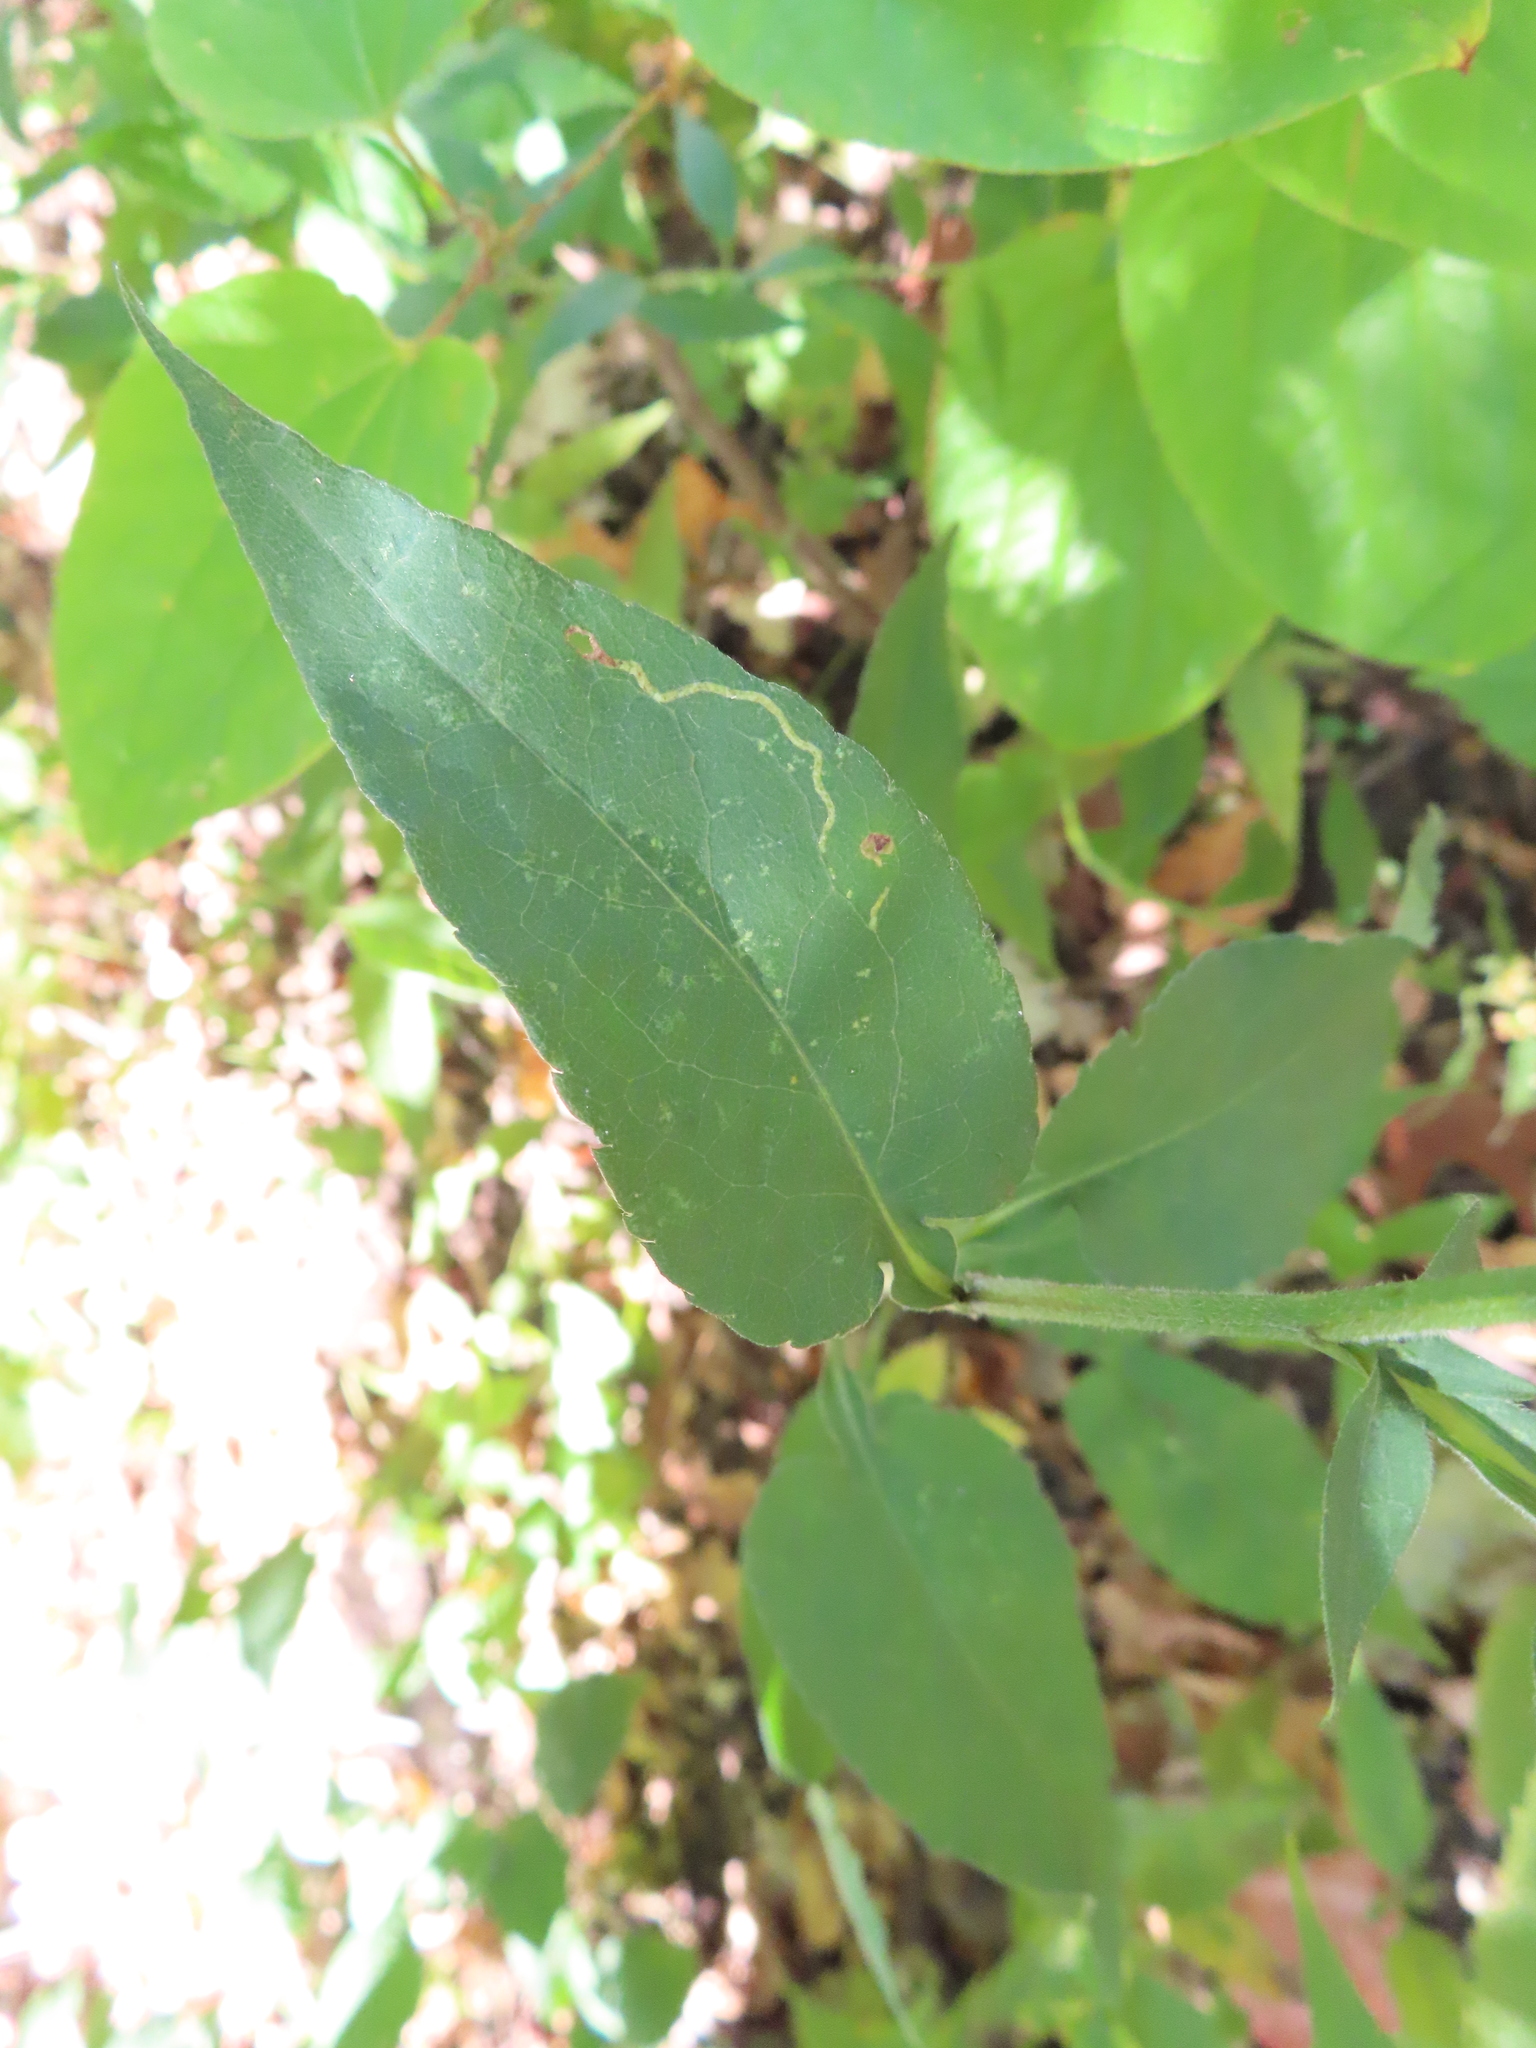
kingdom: Plantae
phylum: Tracheophyta
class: Magnoliopsida
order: Asterales
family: Asteraceae
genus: Symphyotrichum
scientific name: Symphyotrichum urophyllum
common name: Arrow-leaved aster
